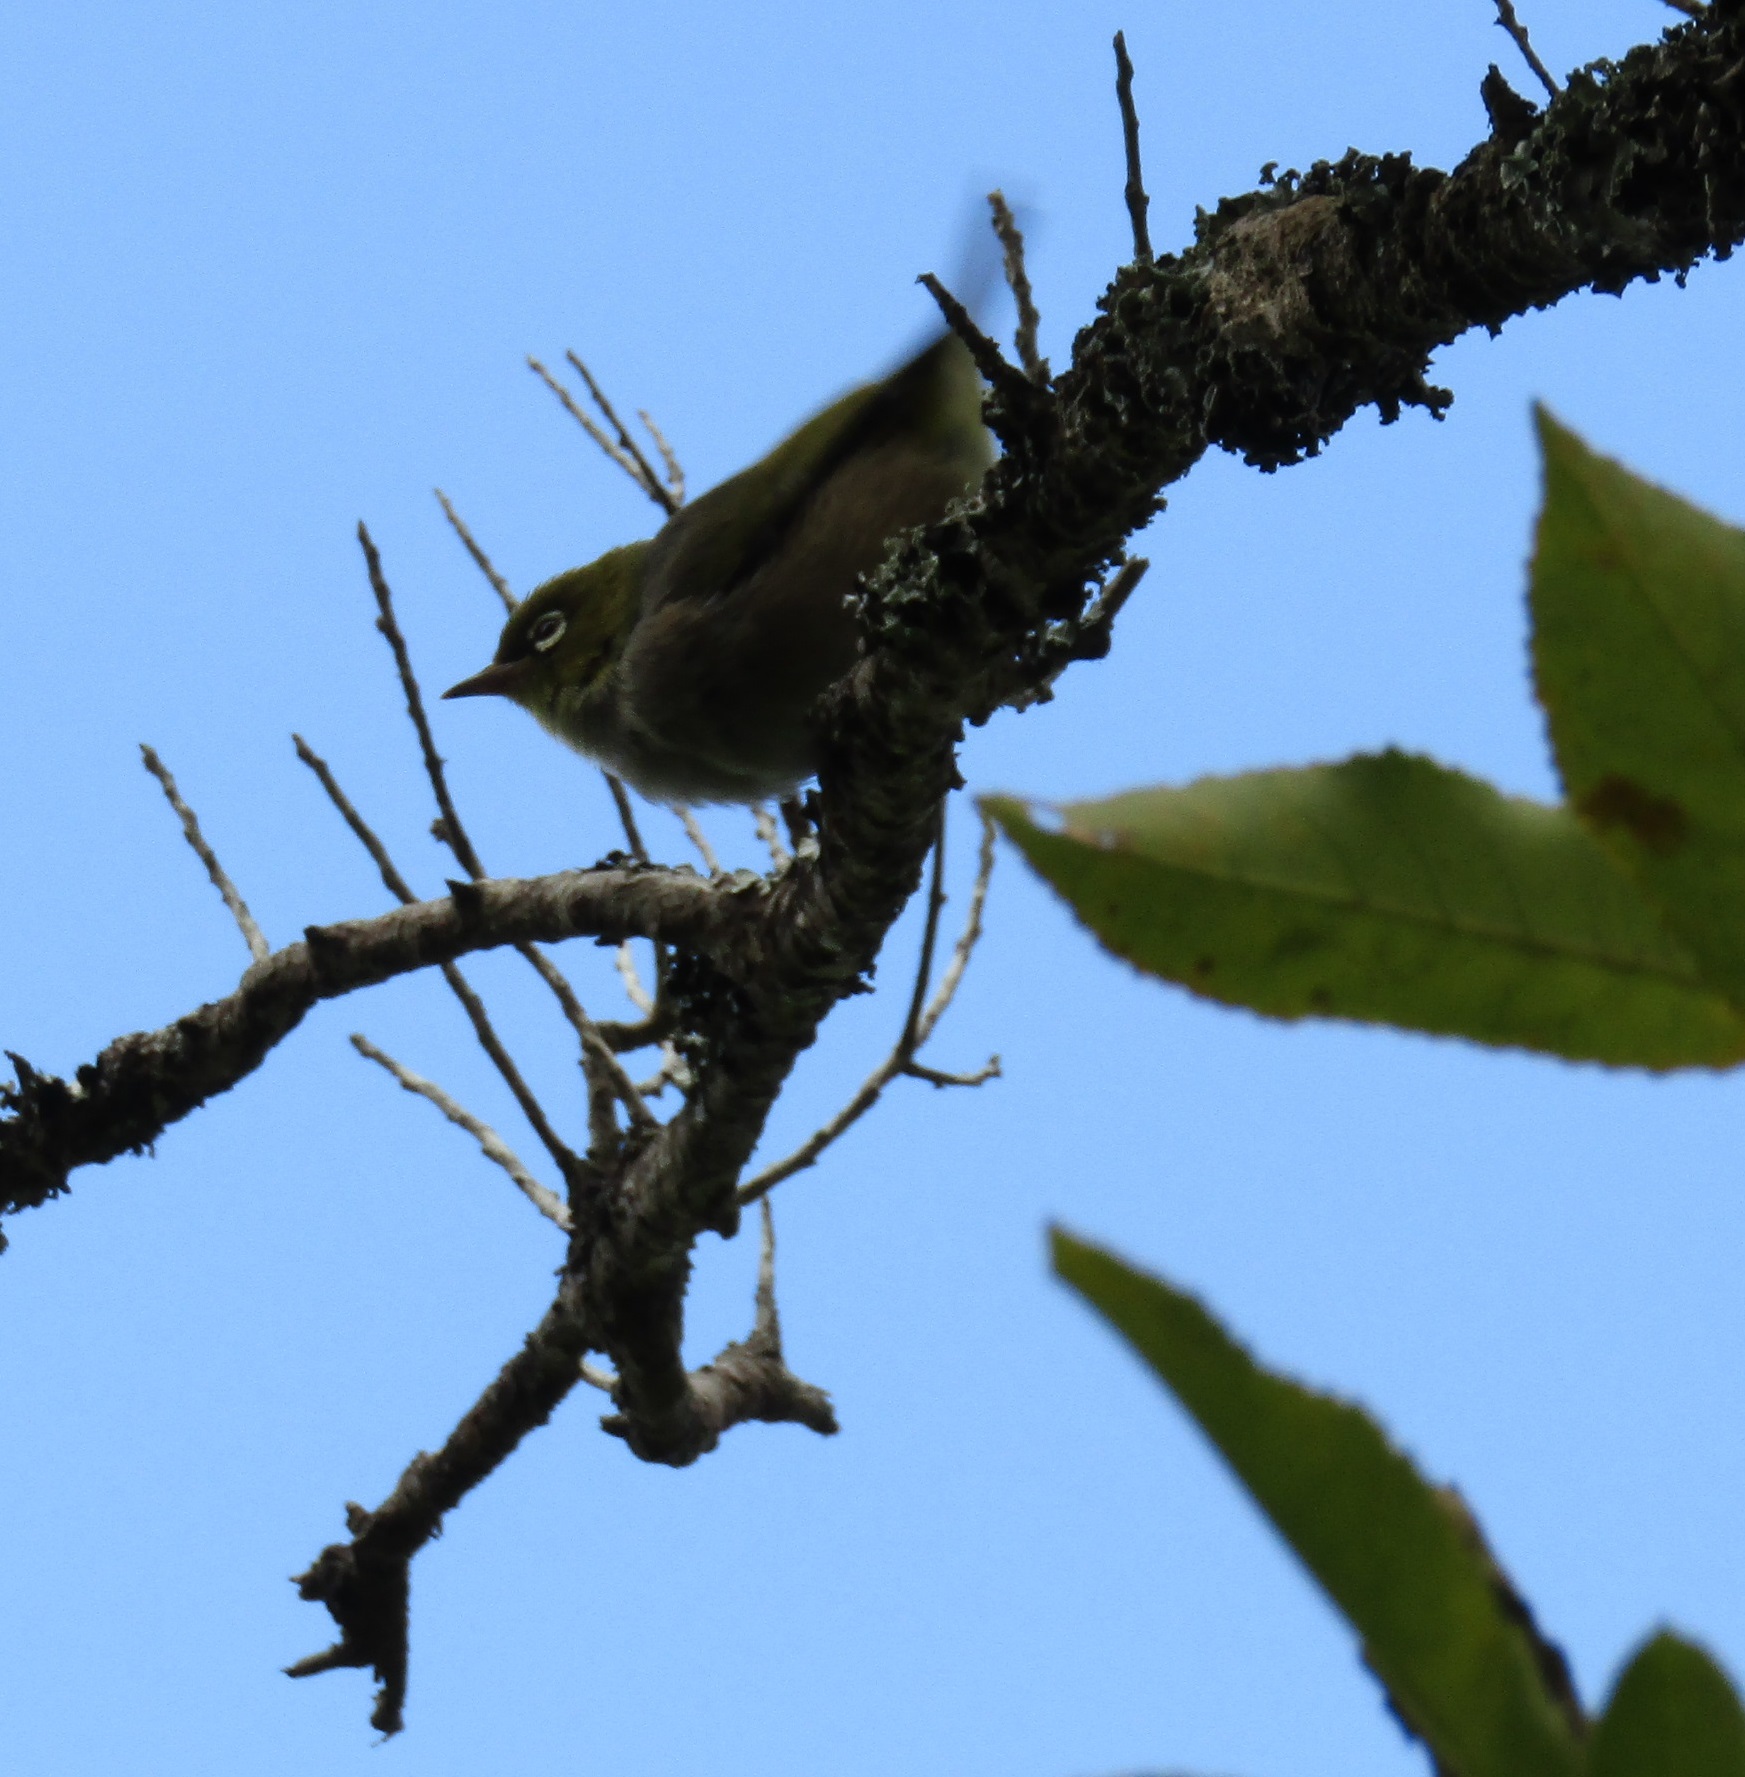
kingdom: Animalia
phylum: Chordata
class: Aves
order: Passeriformes
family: Zosteropidae
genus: Zosterops
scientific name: Zosterops lateralis
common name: Silvereye
